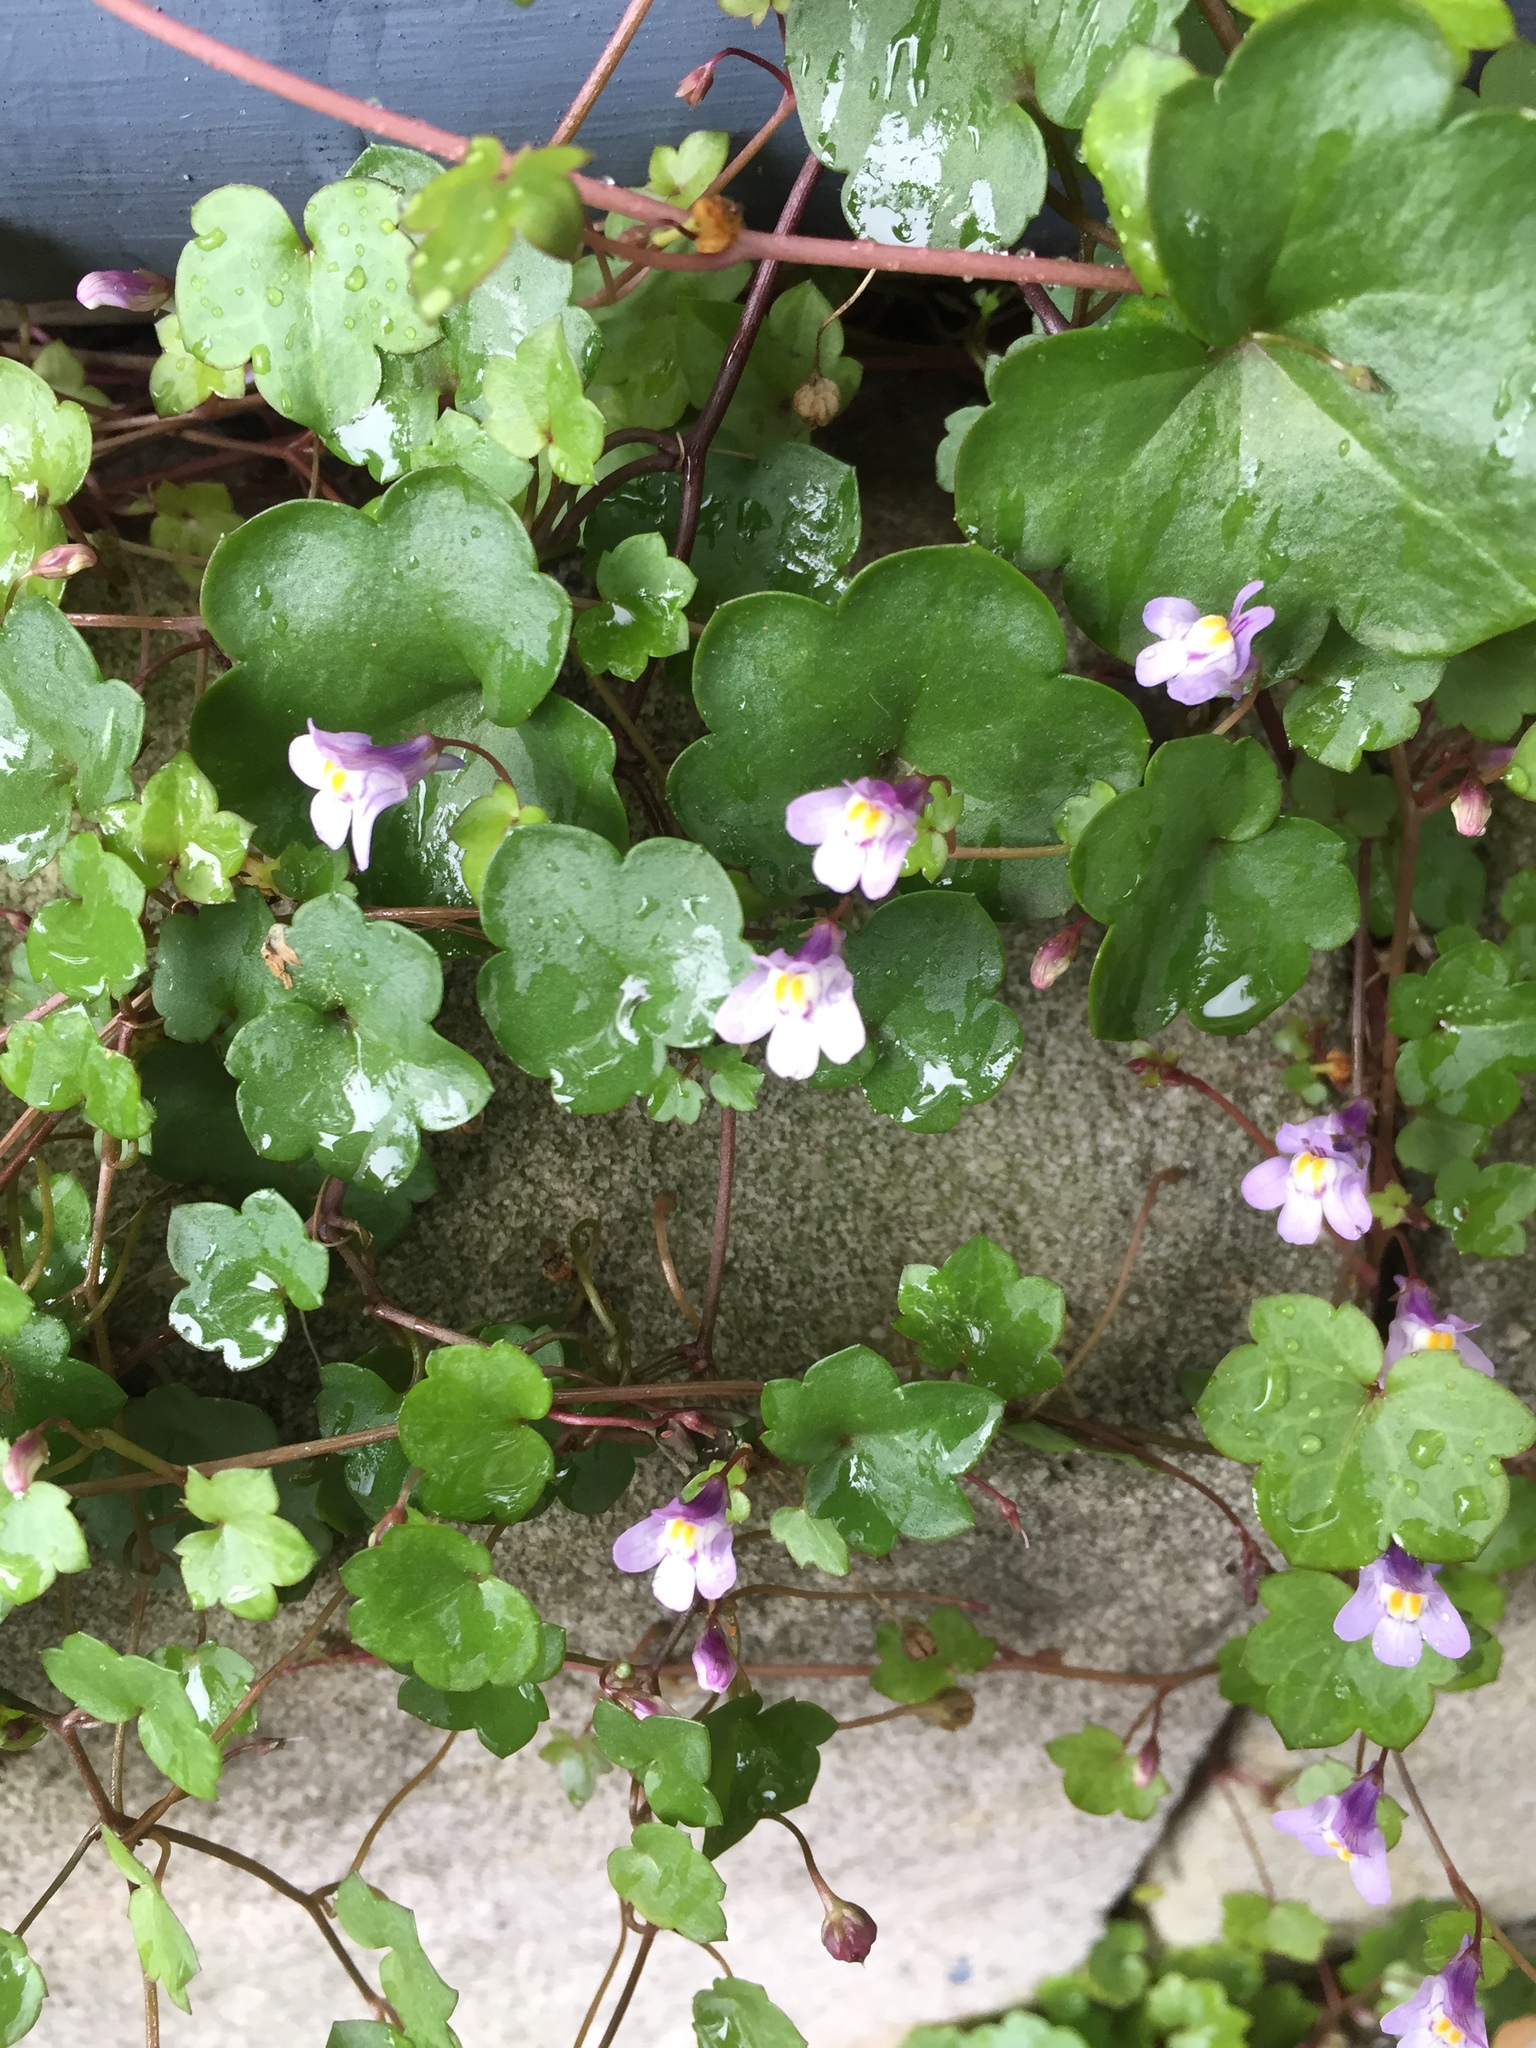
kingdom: Plantae
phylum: Tracheophyta
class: Magnoliopsida
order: Lamiales
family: Plantaginaceae
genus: Cymbalaria
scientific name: Cymbalaria muralis
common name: Ivy-leaved toadflax
